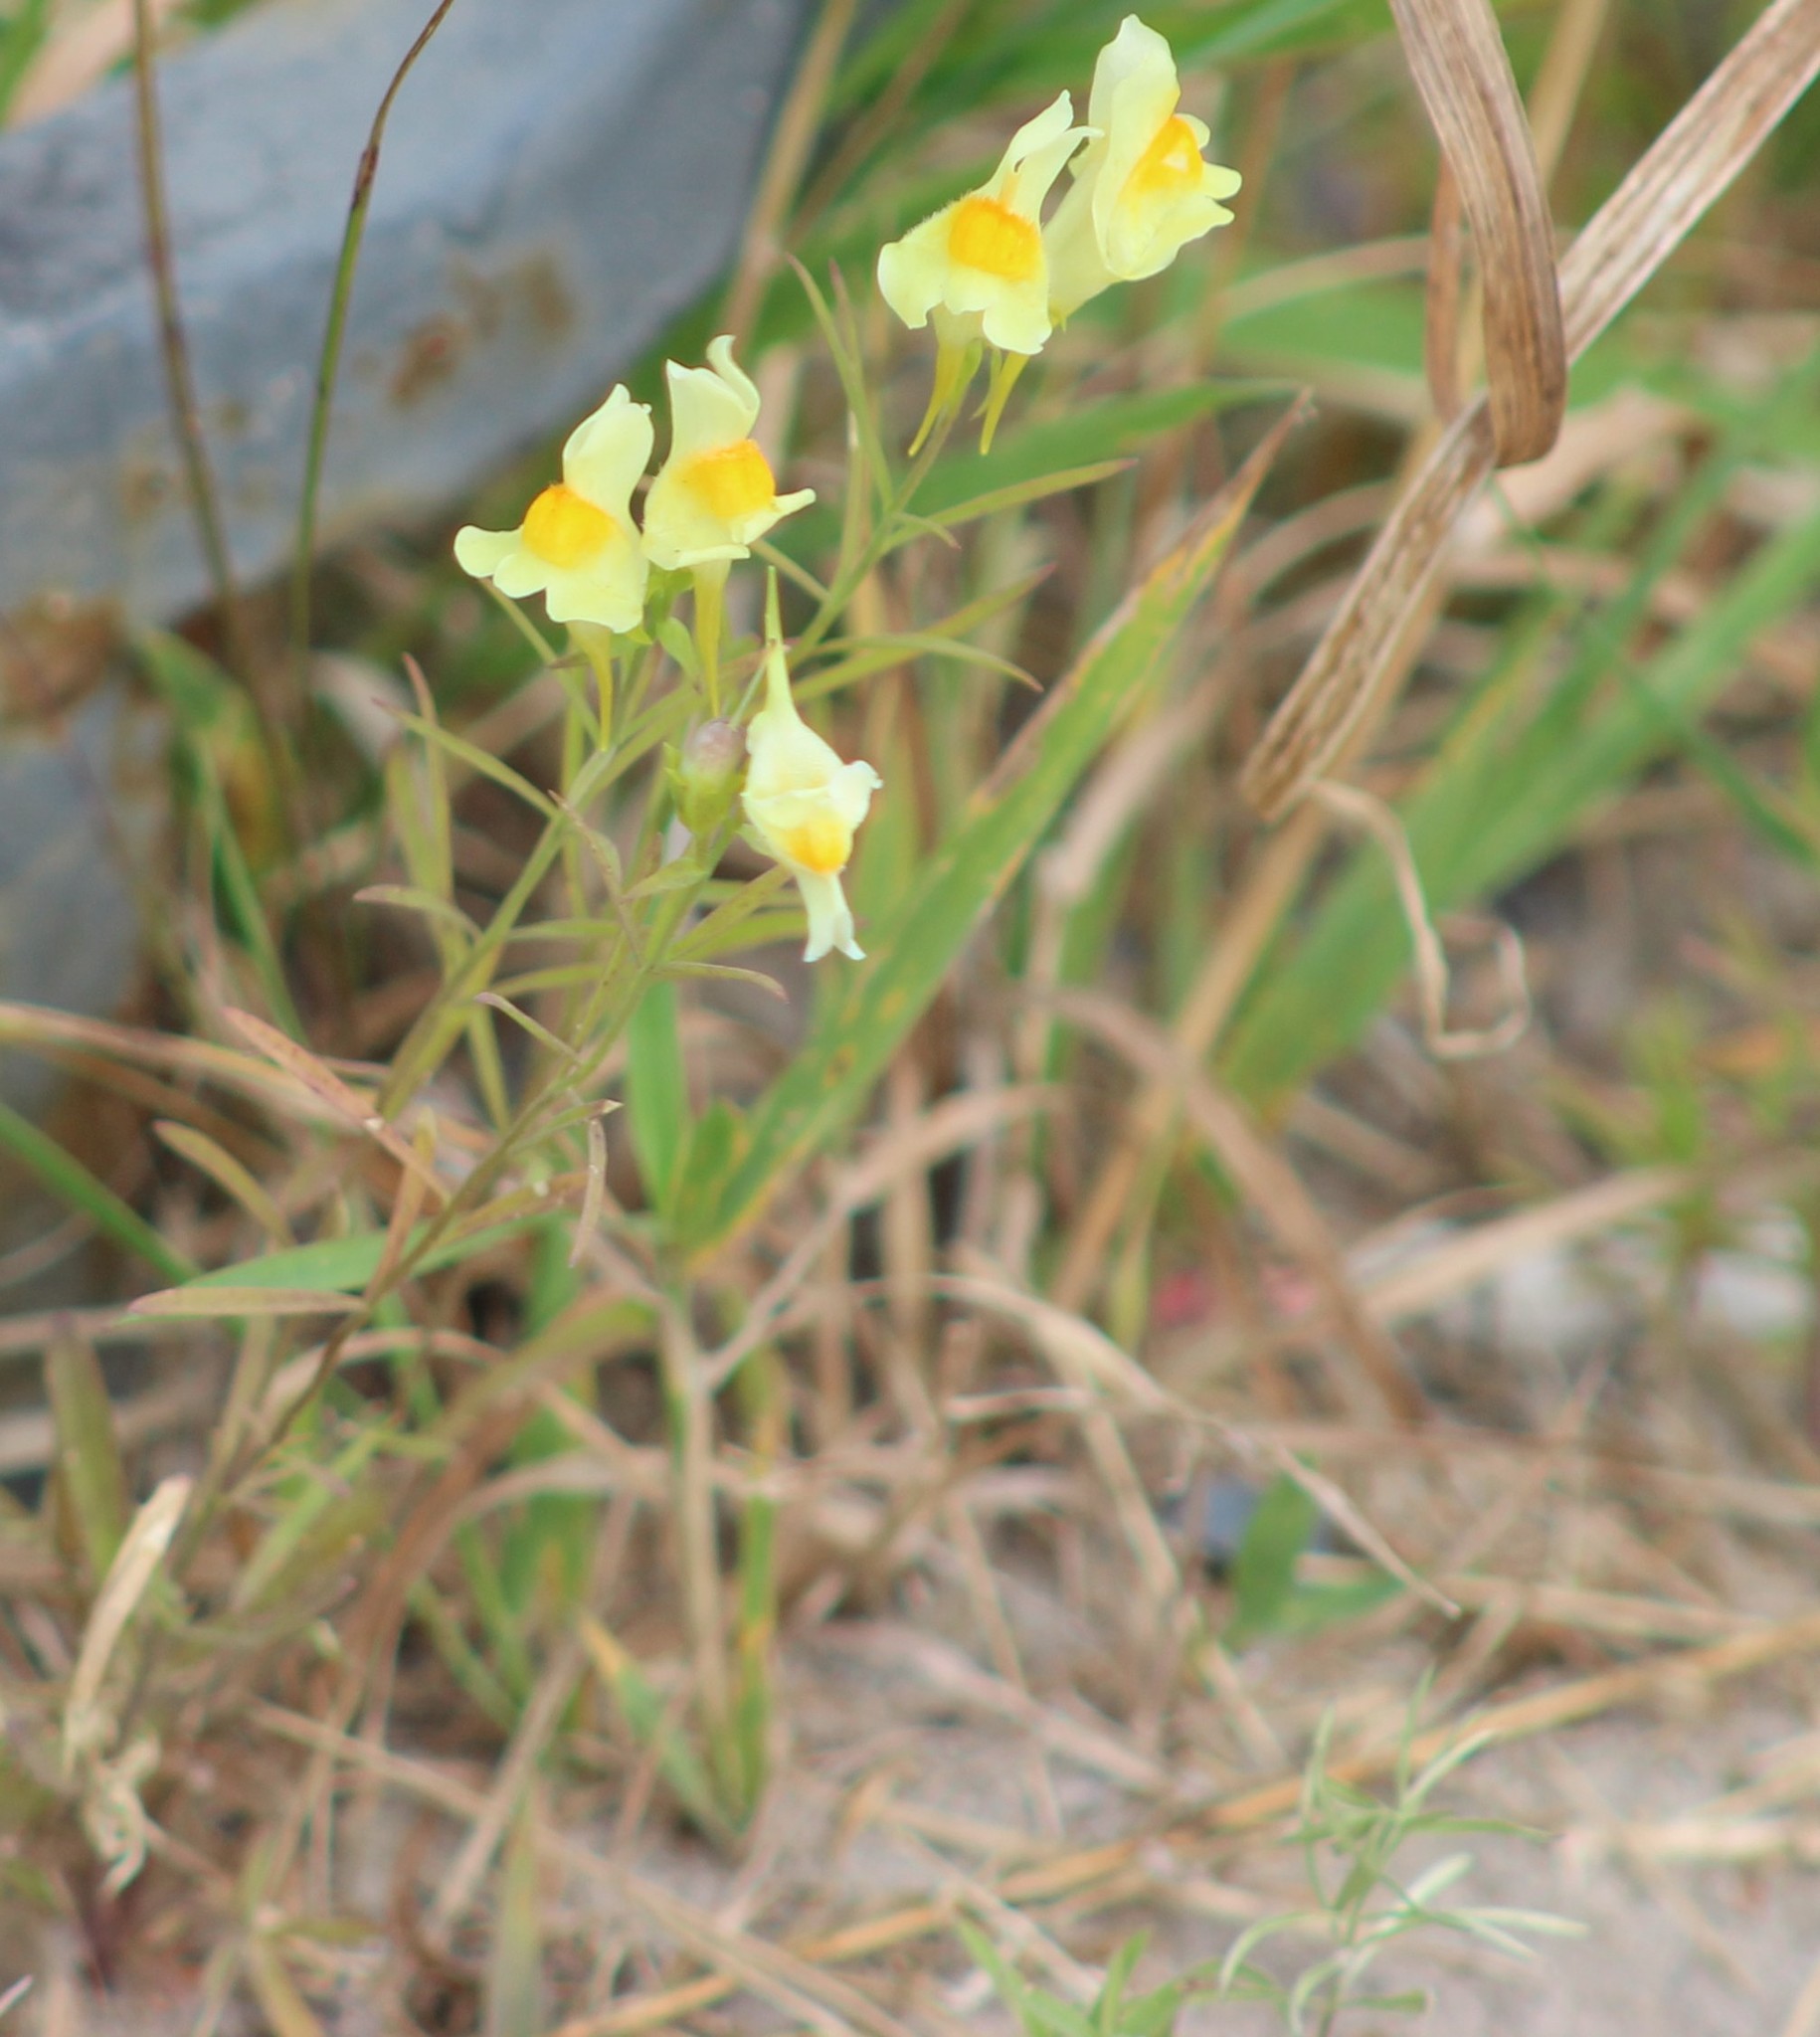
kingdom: Plantae
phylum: Tracheophyta
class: Magnoliopsida
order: Lamiales
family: Plantaginaceae
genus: Linaria
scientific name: Linaria vulgaris
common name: Butter and eggs
